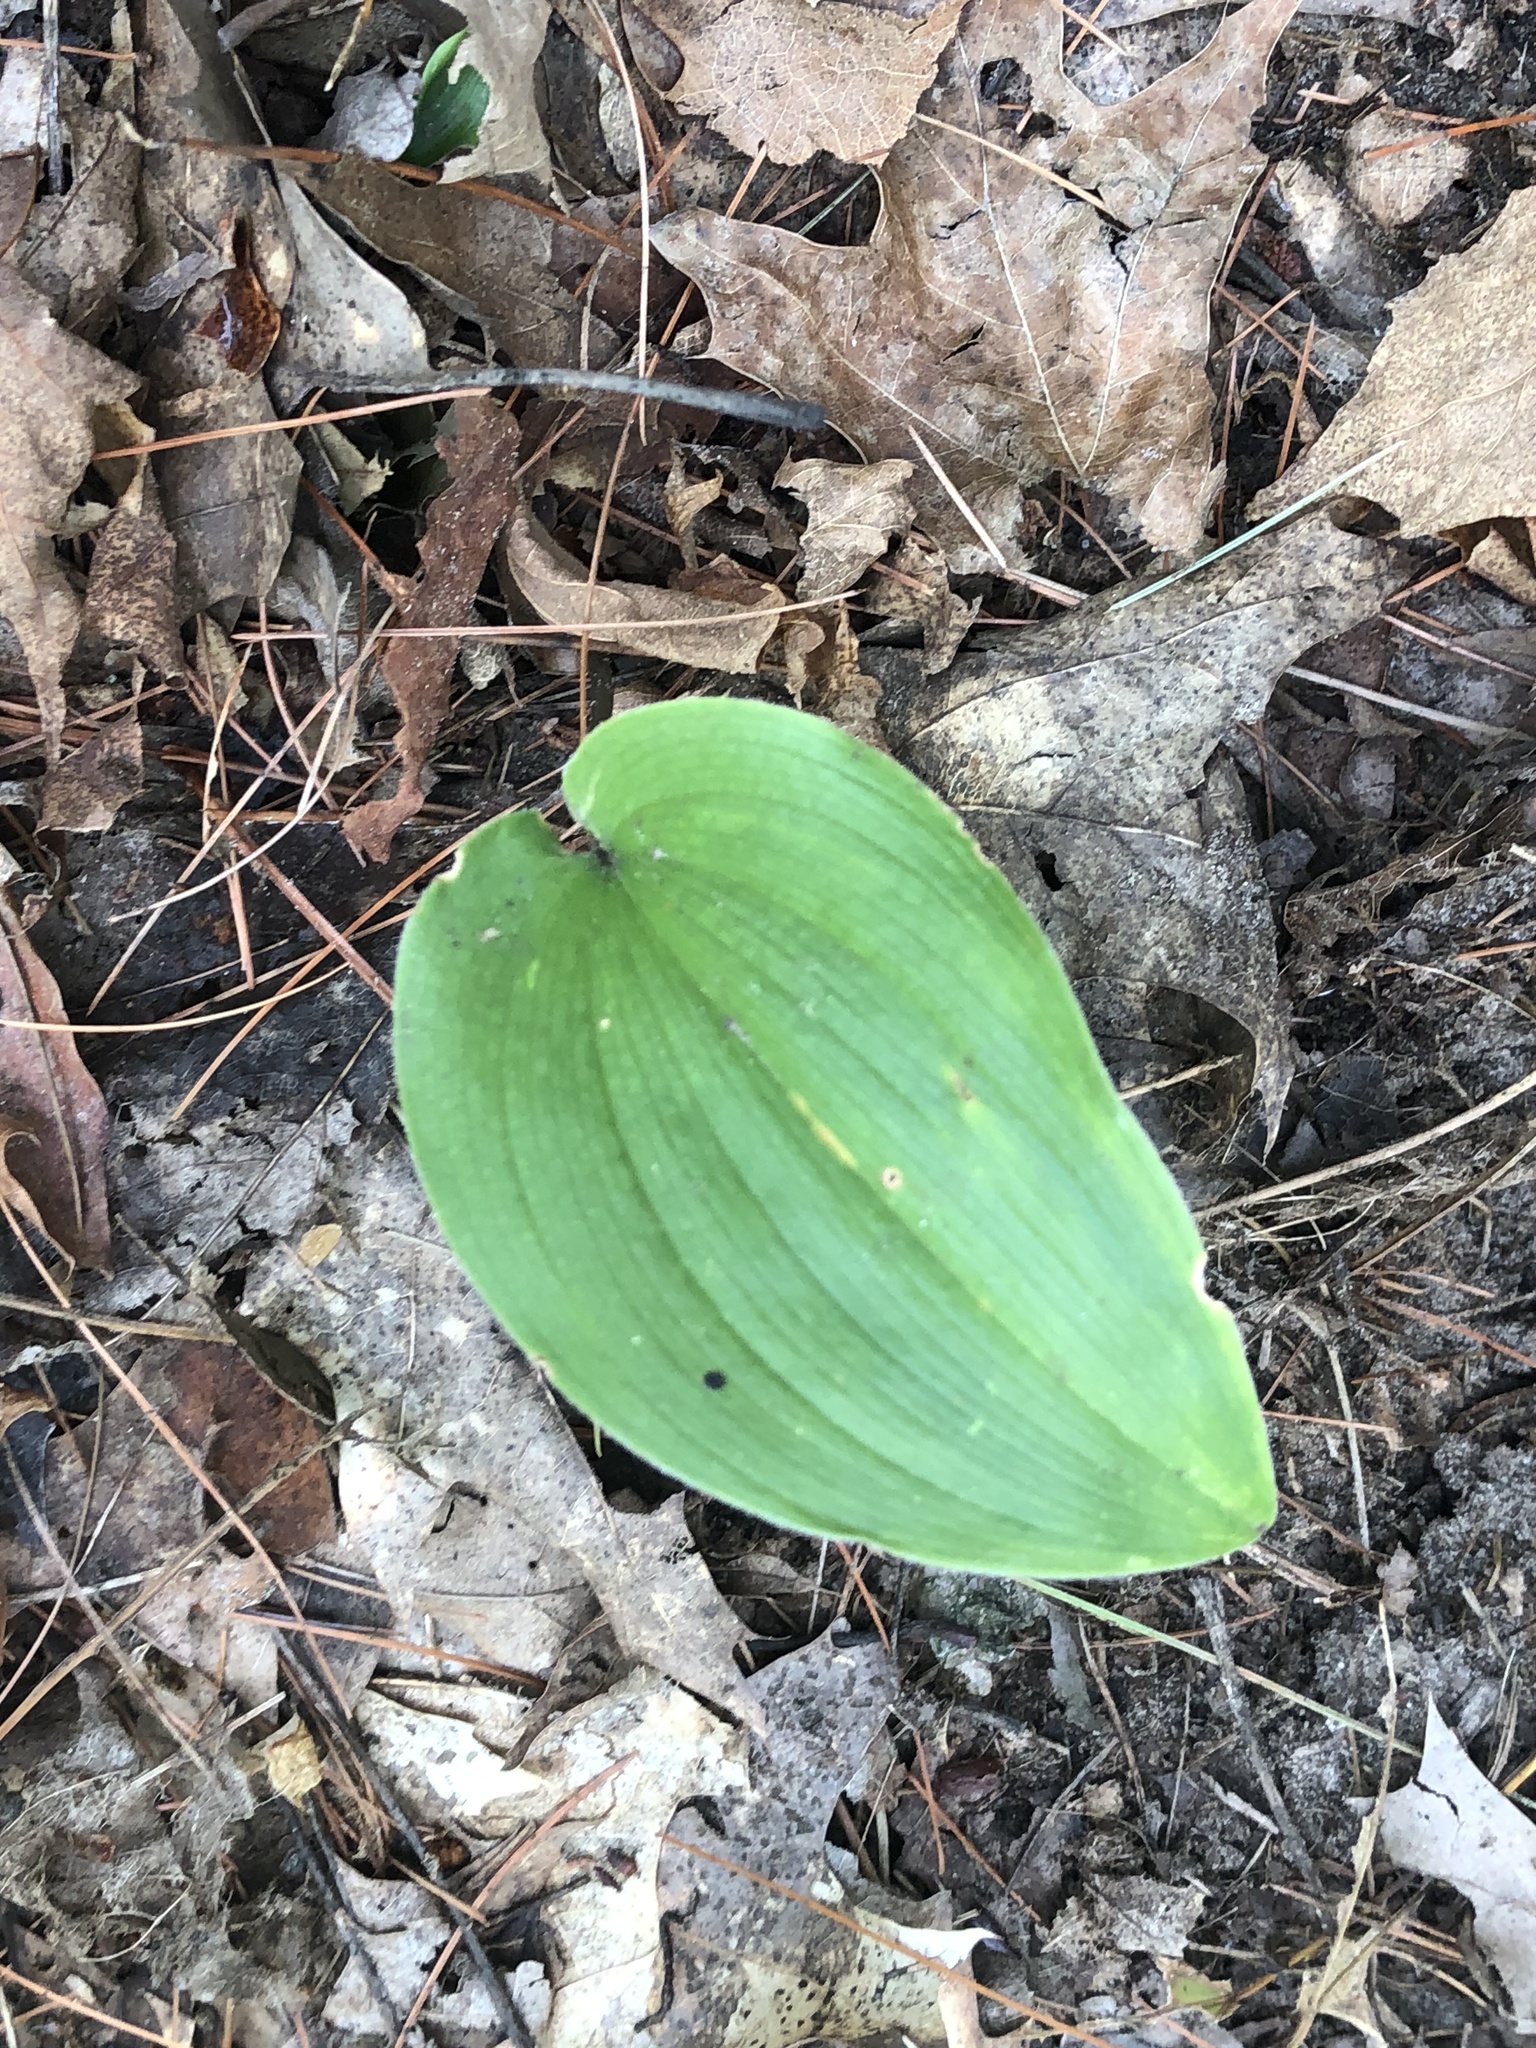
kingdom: Plantae
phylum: Tracheophyta
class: Liliopsida
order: Asparagales
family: Asparagaceae
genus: Maianthemum
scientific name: Maianthemum canadense
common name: False lily-of-the-valley
